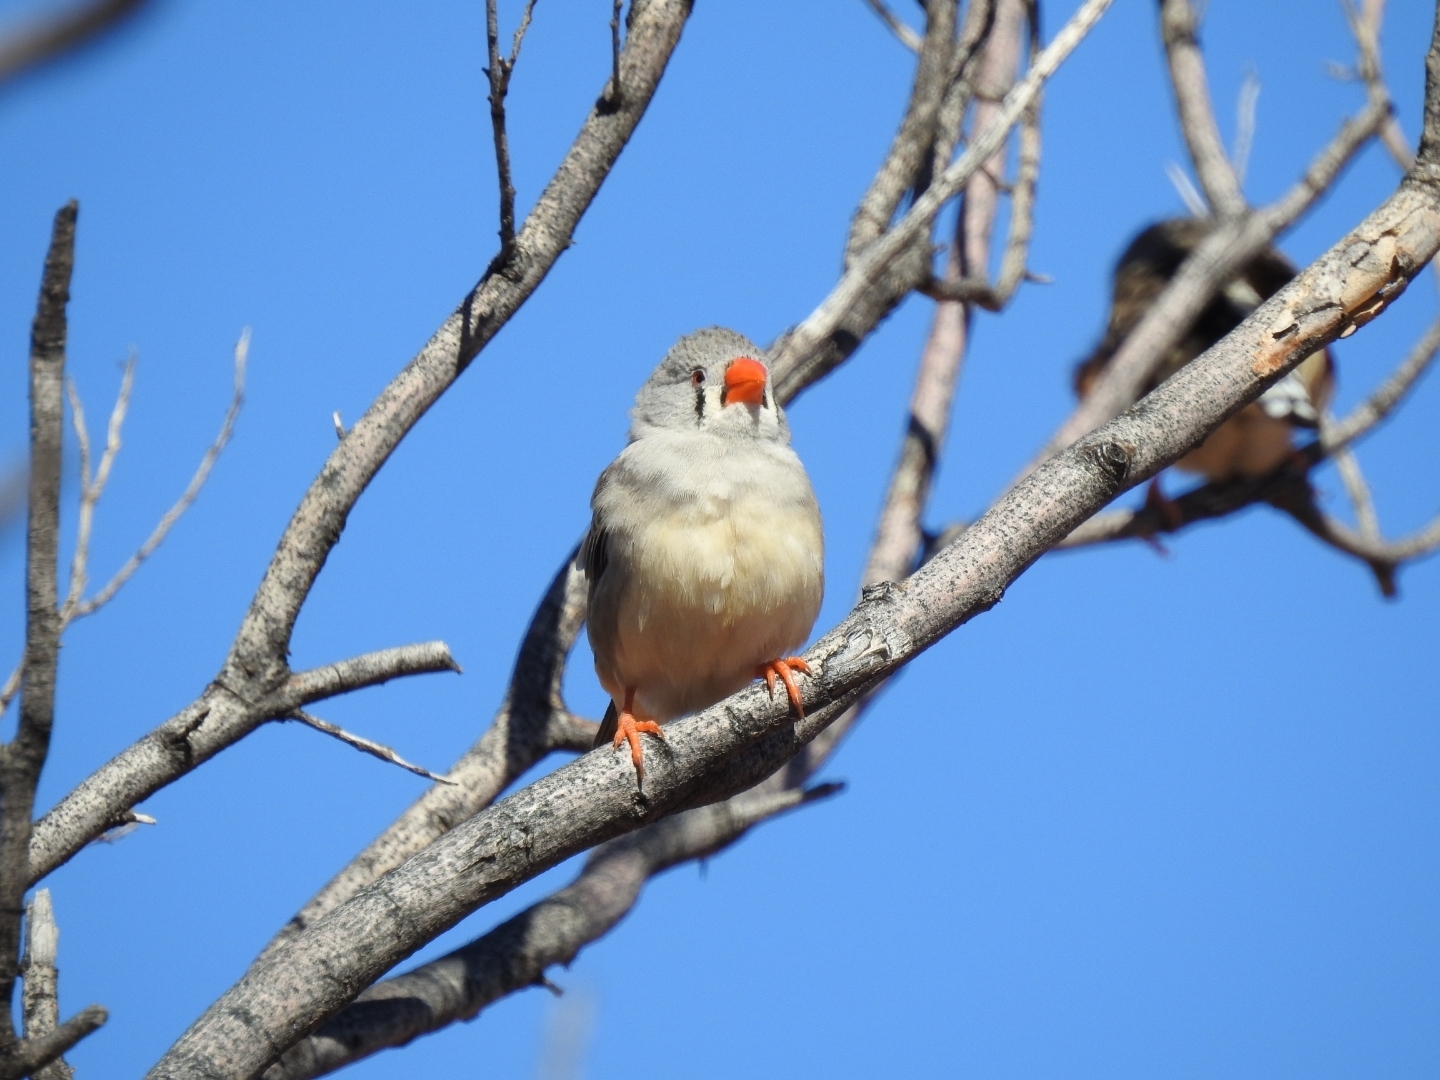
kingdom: Animalia
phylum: Chordata
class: Aves
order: Passeriformes
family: Estrildidae
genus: Taeniopygia
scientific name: Taeniopygia guttata
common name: Zebra finch
